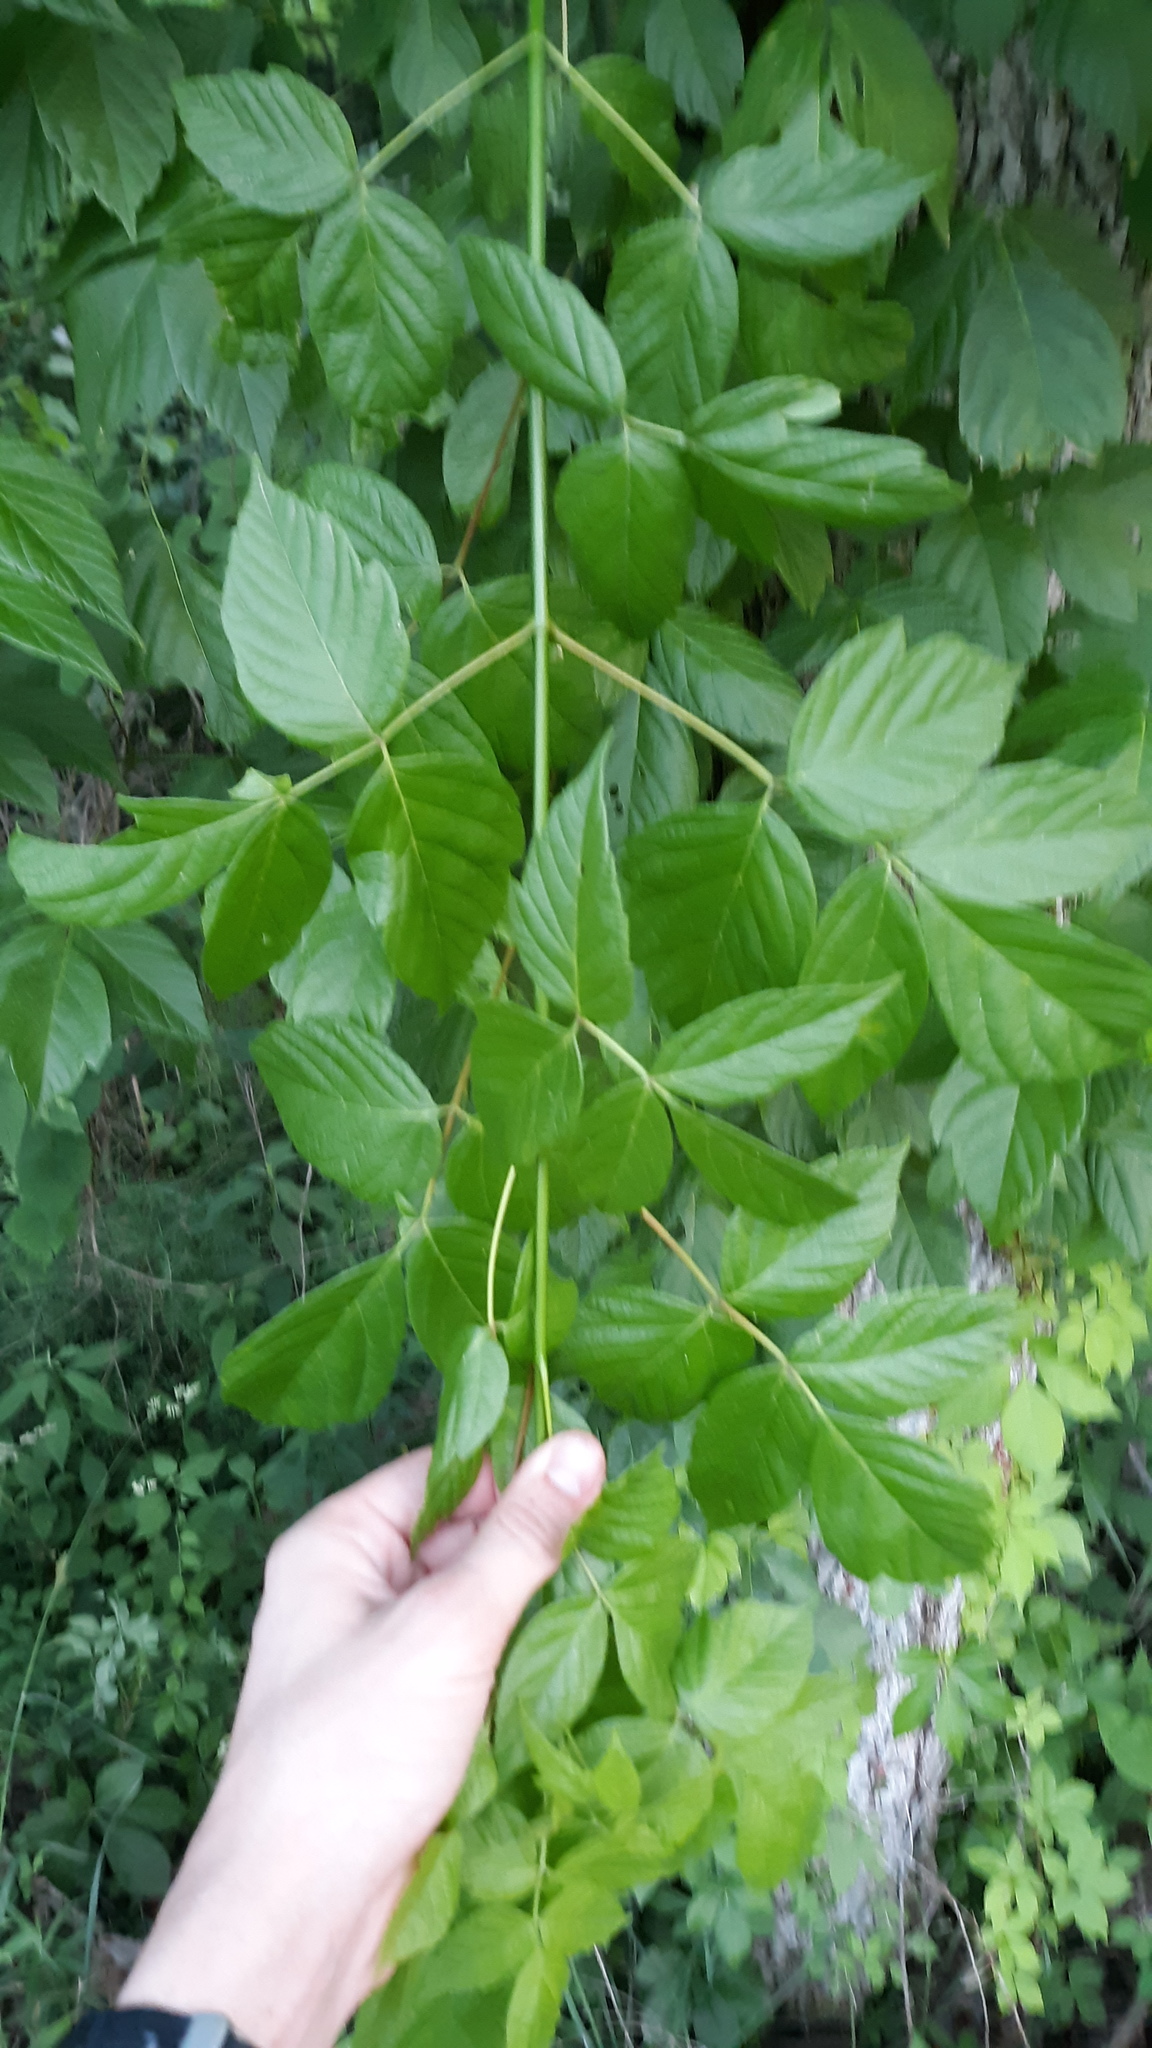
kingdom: Plantae
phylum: Tracheophyta
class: Magnoliopsida
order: Sapindales
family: Sapindaceae
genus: Acer
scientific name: Acer negundo
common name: Ashleaf maple
